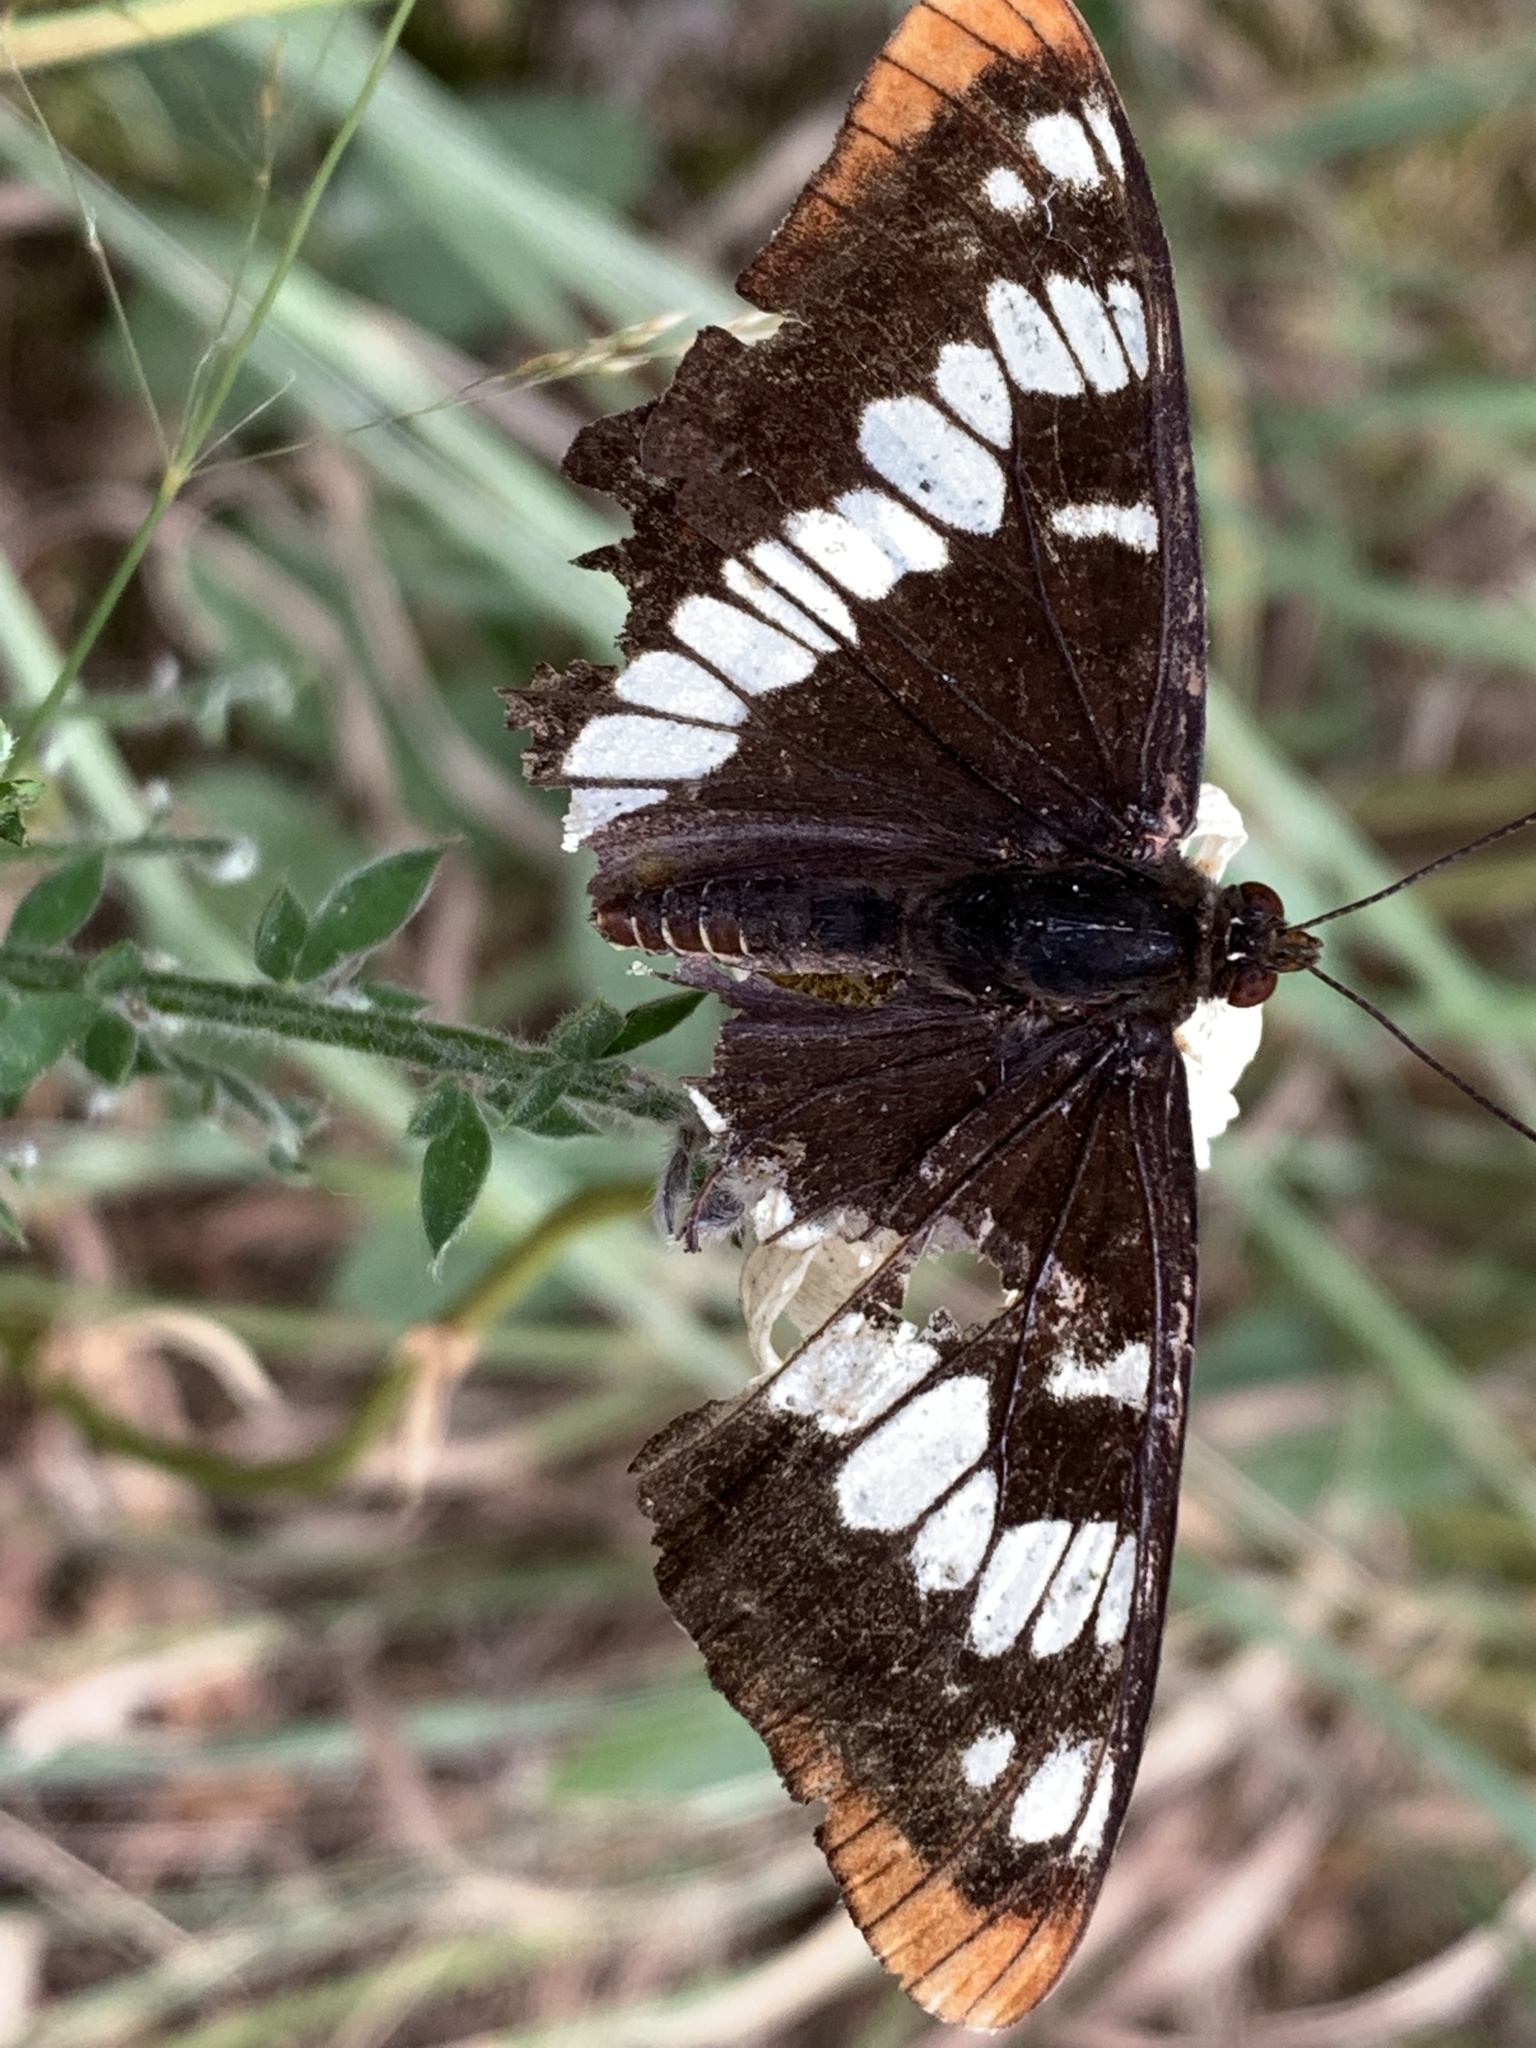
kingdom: Animalia
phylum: Arthropoda
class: Insecta
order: Lepidoptera
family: Nymphalidae
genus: Limenitis
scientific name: Limenitis lorquini
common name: Lorquin's admiral
